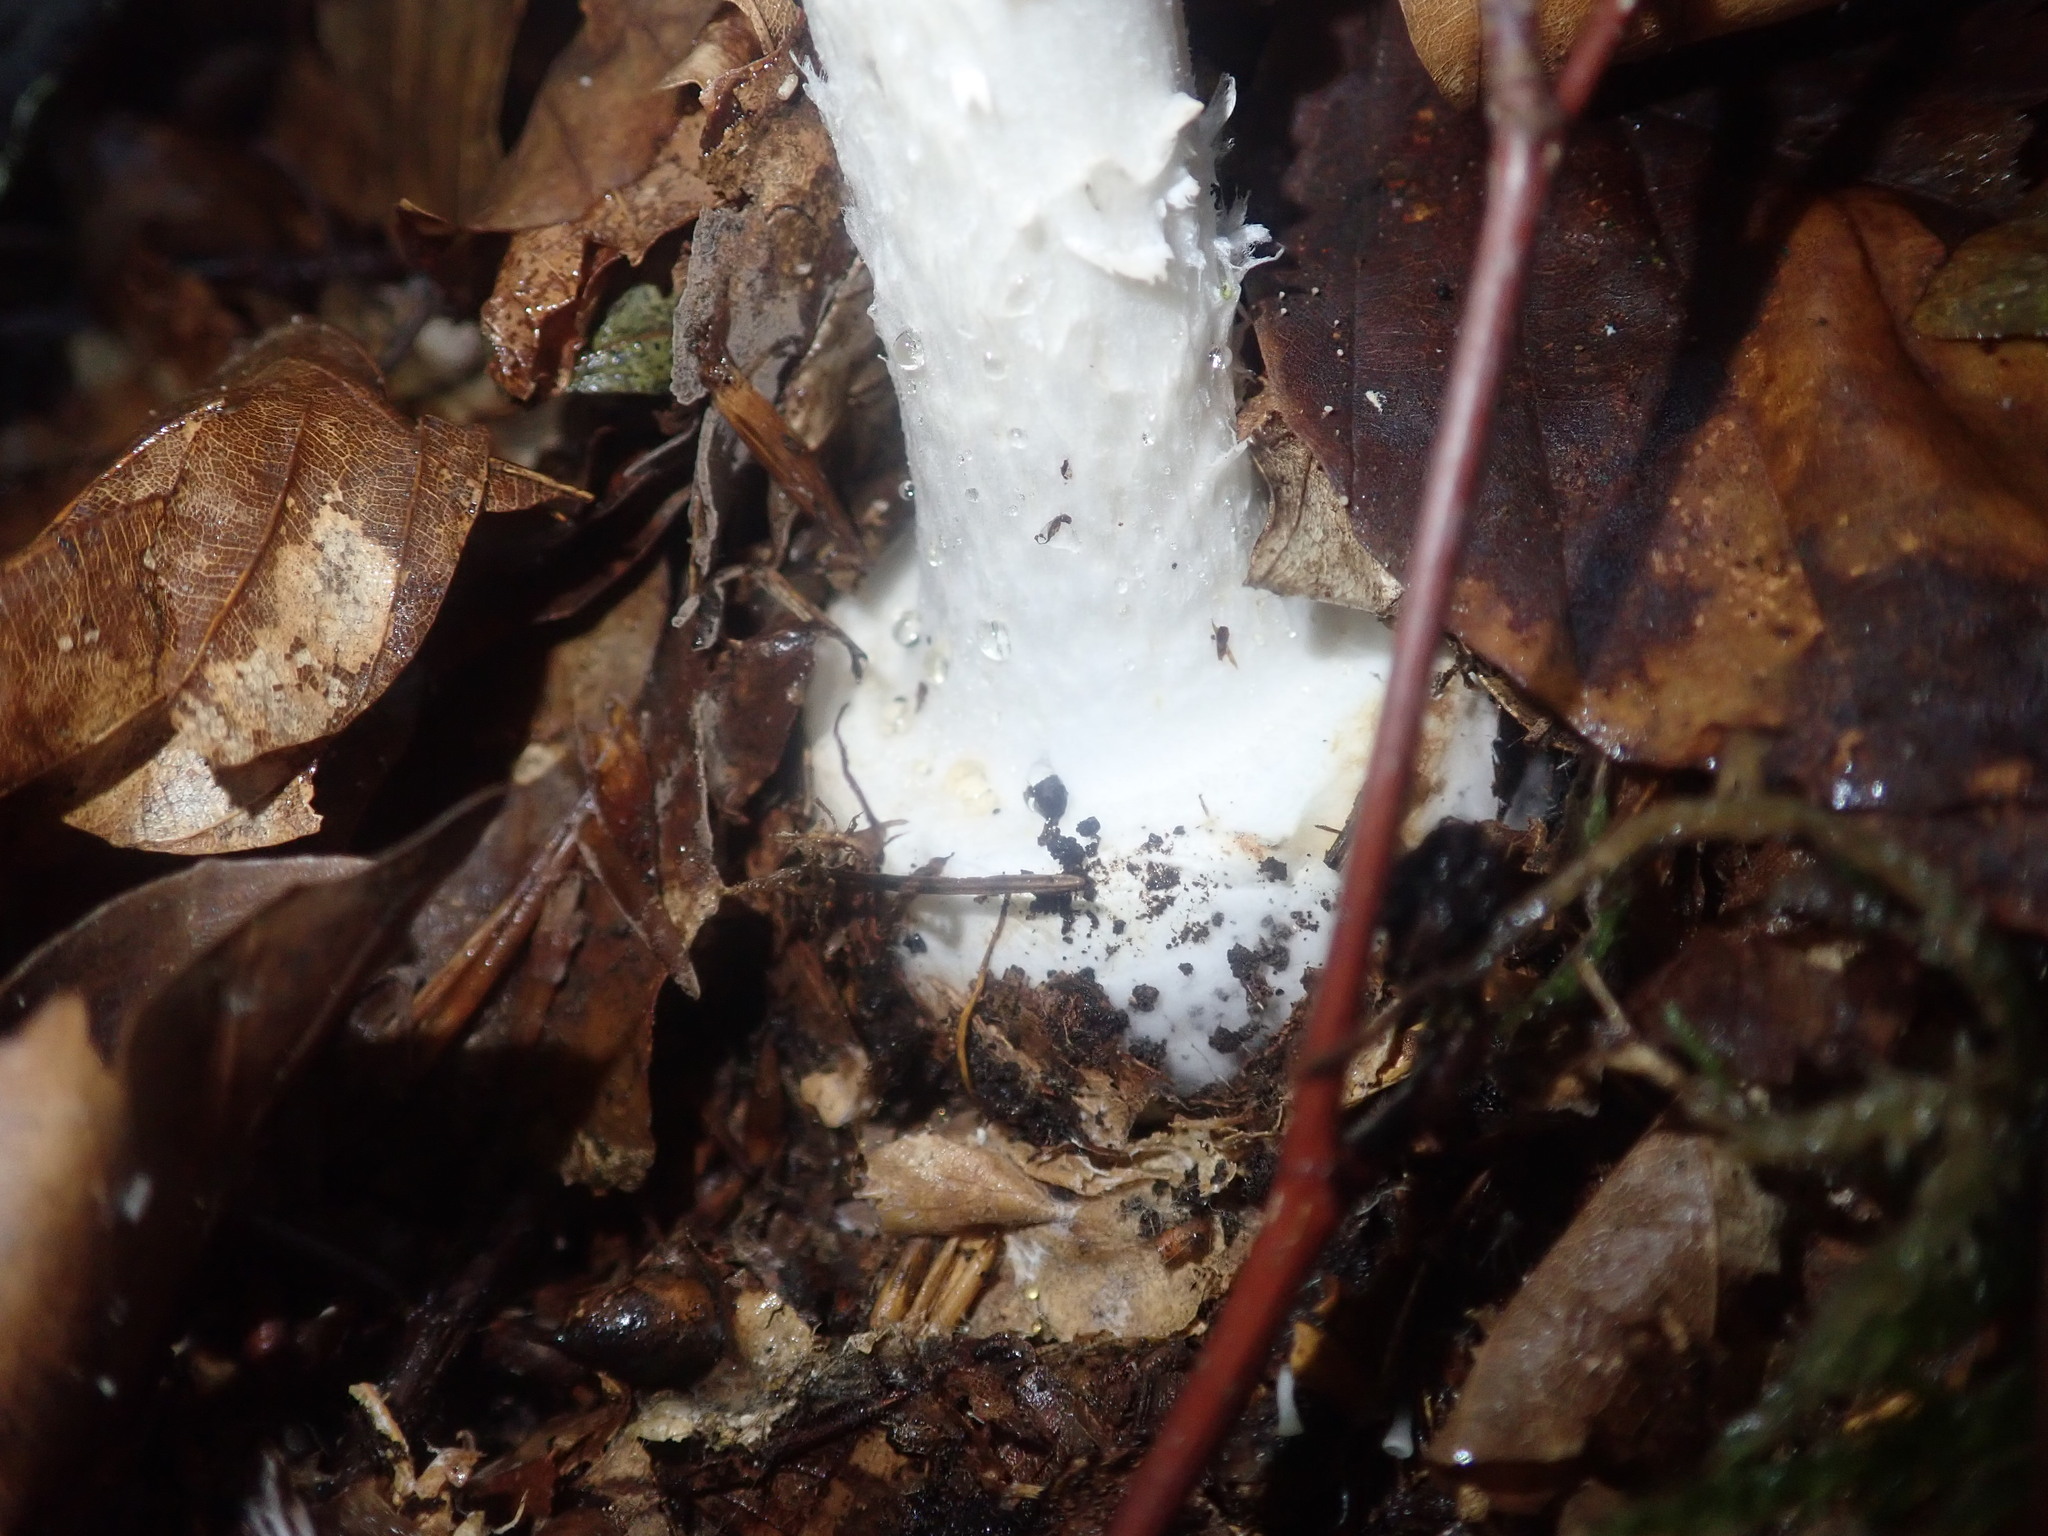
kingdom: Fungi
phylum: Basidiomycota
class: Agaricomycetes
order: Agaricales
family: Amanitaceae
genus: Amanita
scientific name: Amanita citrina
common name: False death-cap
